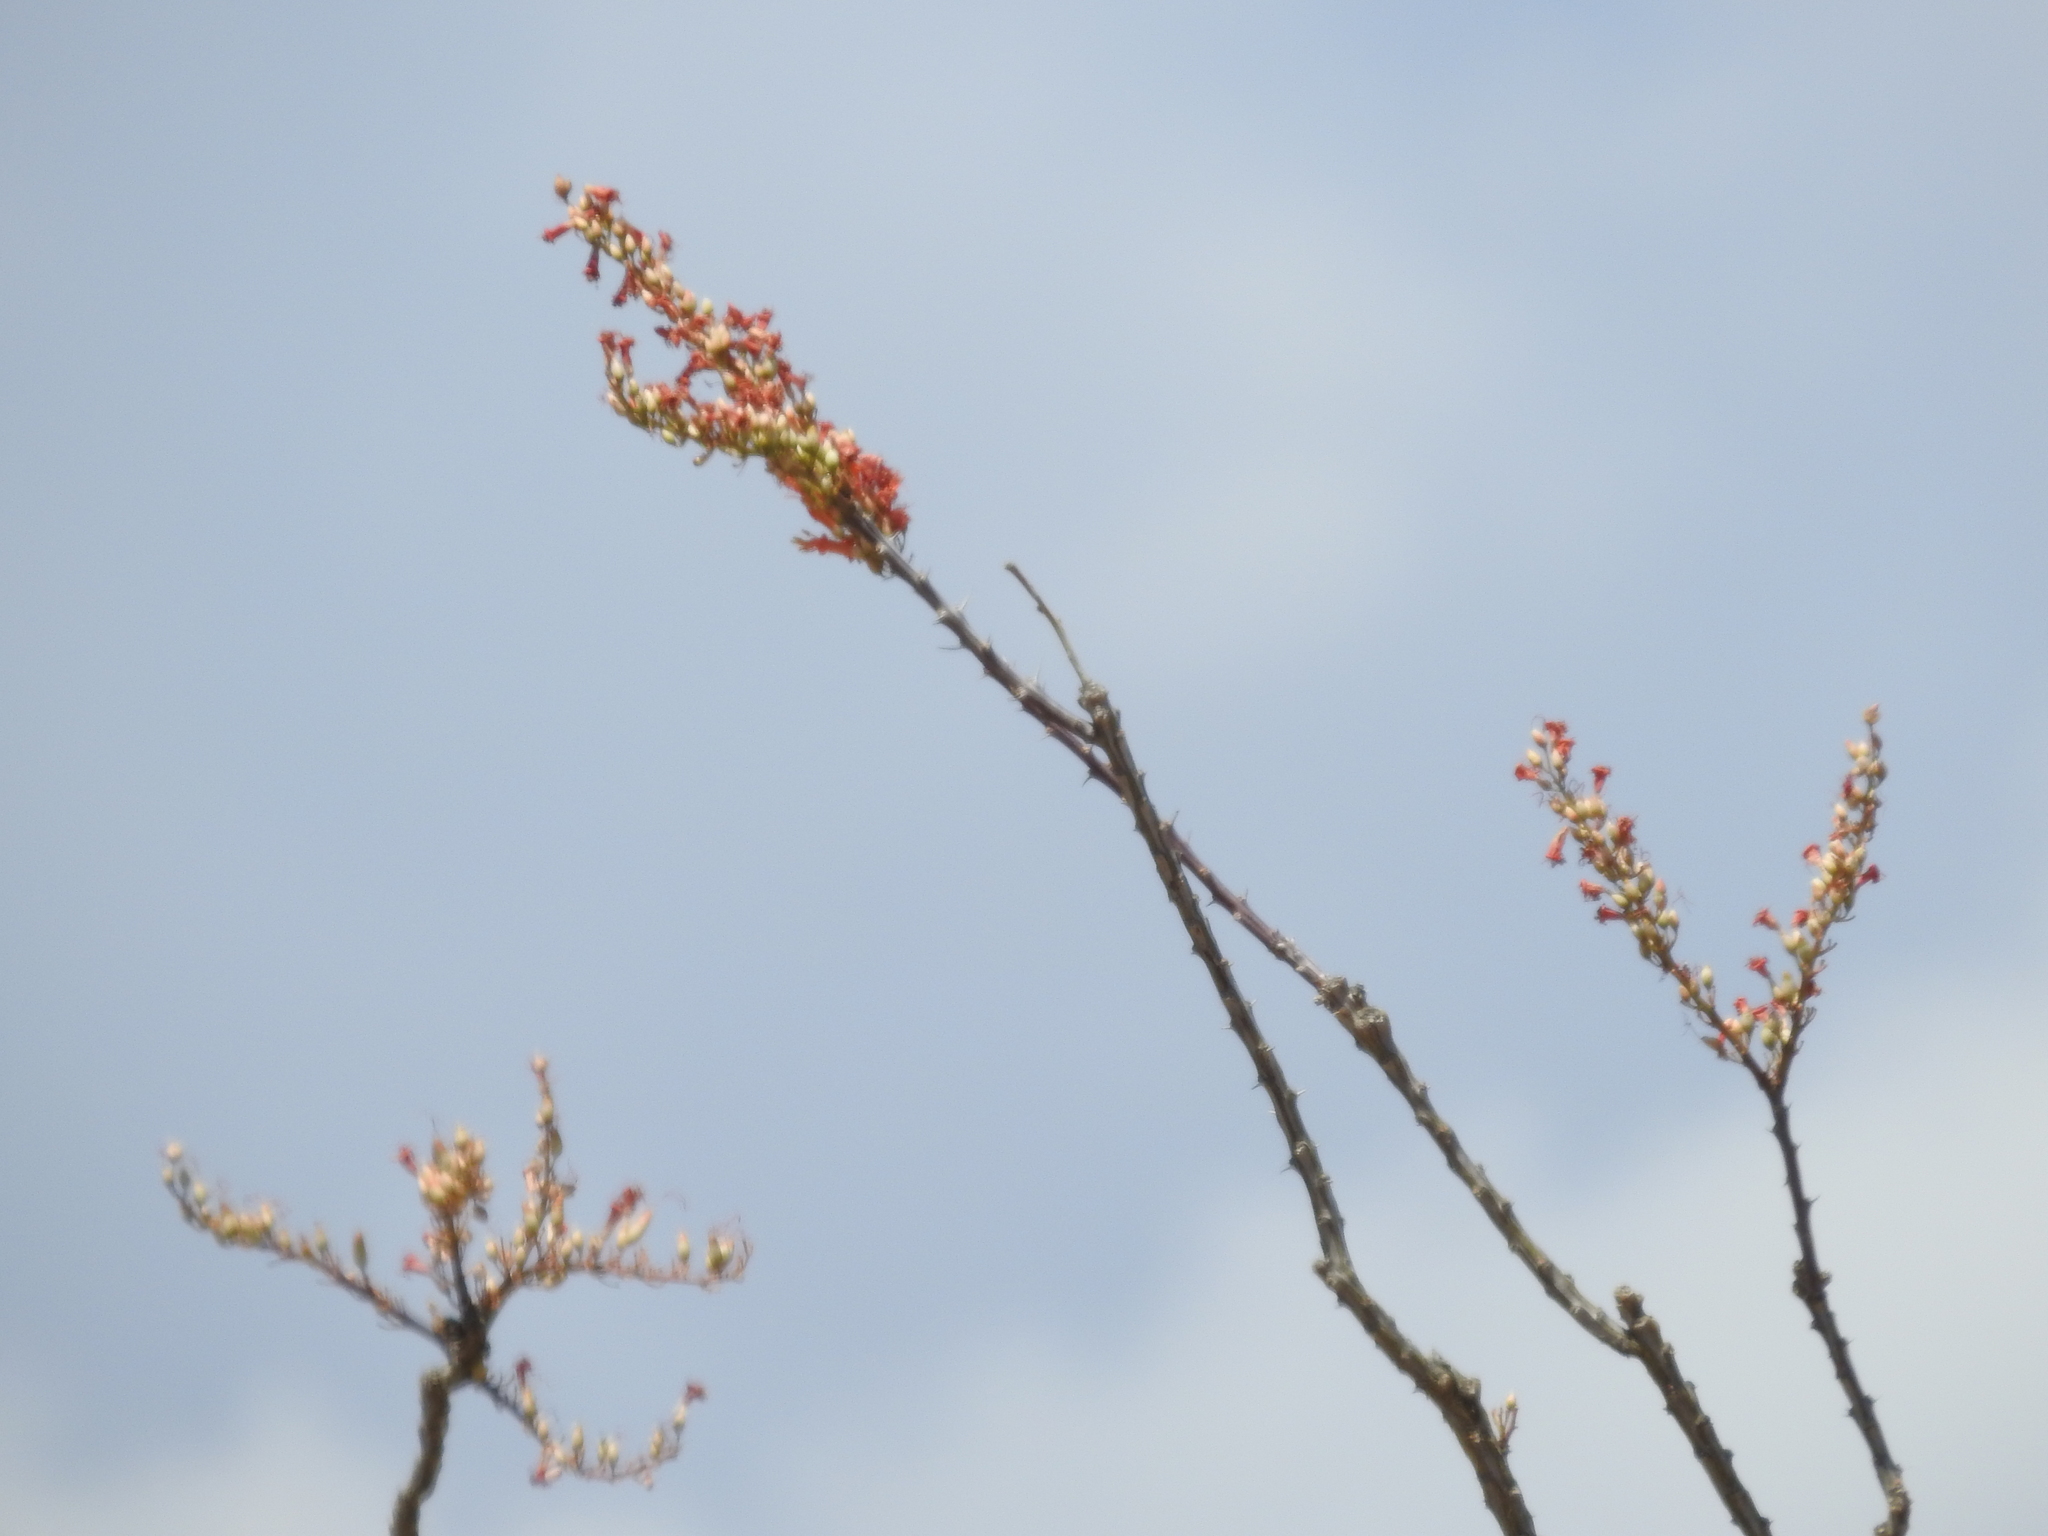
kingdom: Plantae
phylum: Tracheophyta
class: Magnoliopsida
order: Ericales
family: Fouquieriaceae
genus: Fouquieria
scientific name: Fouquieria splendens
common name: Vine-cactus
